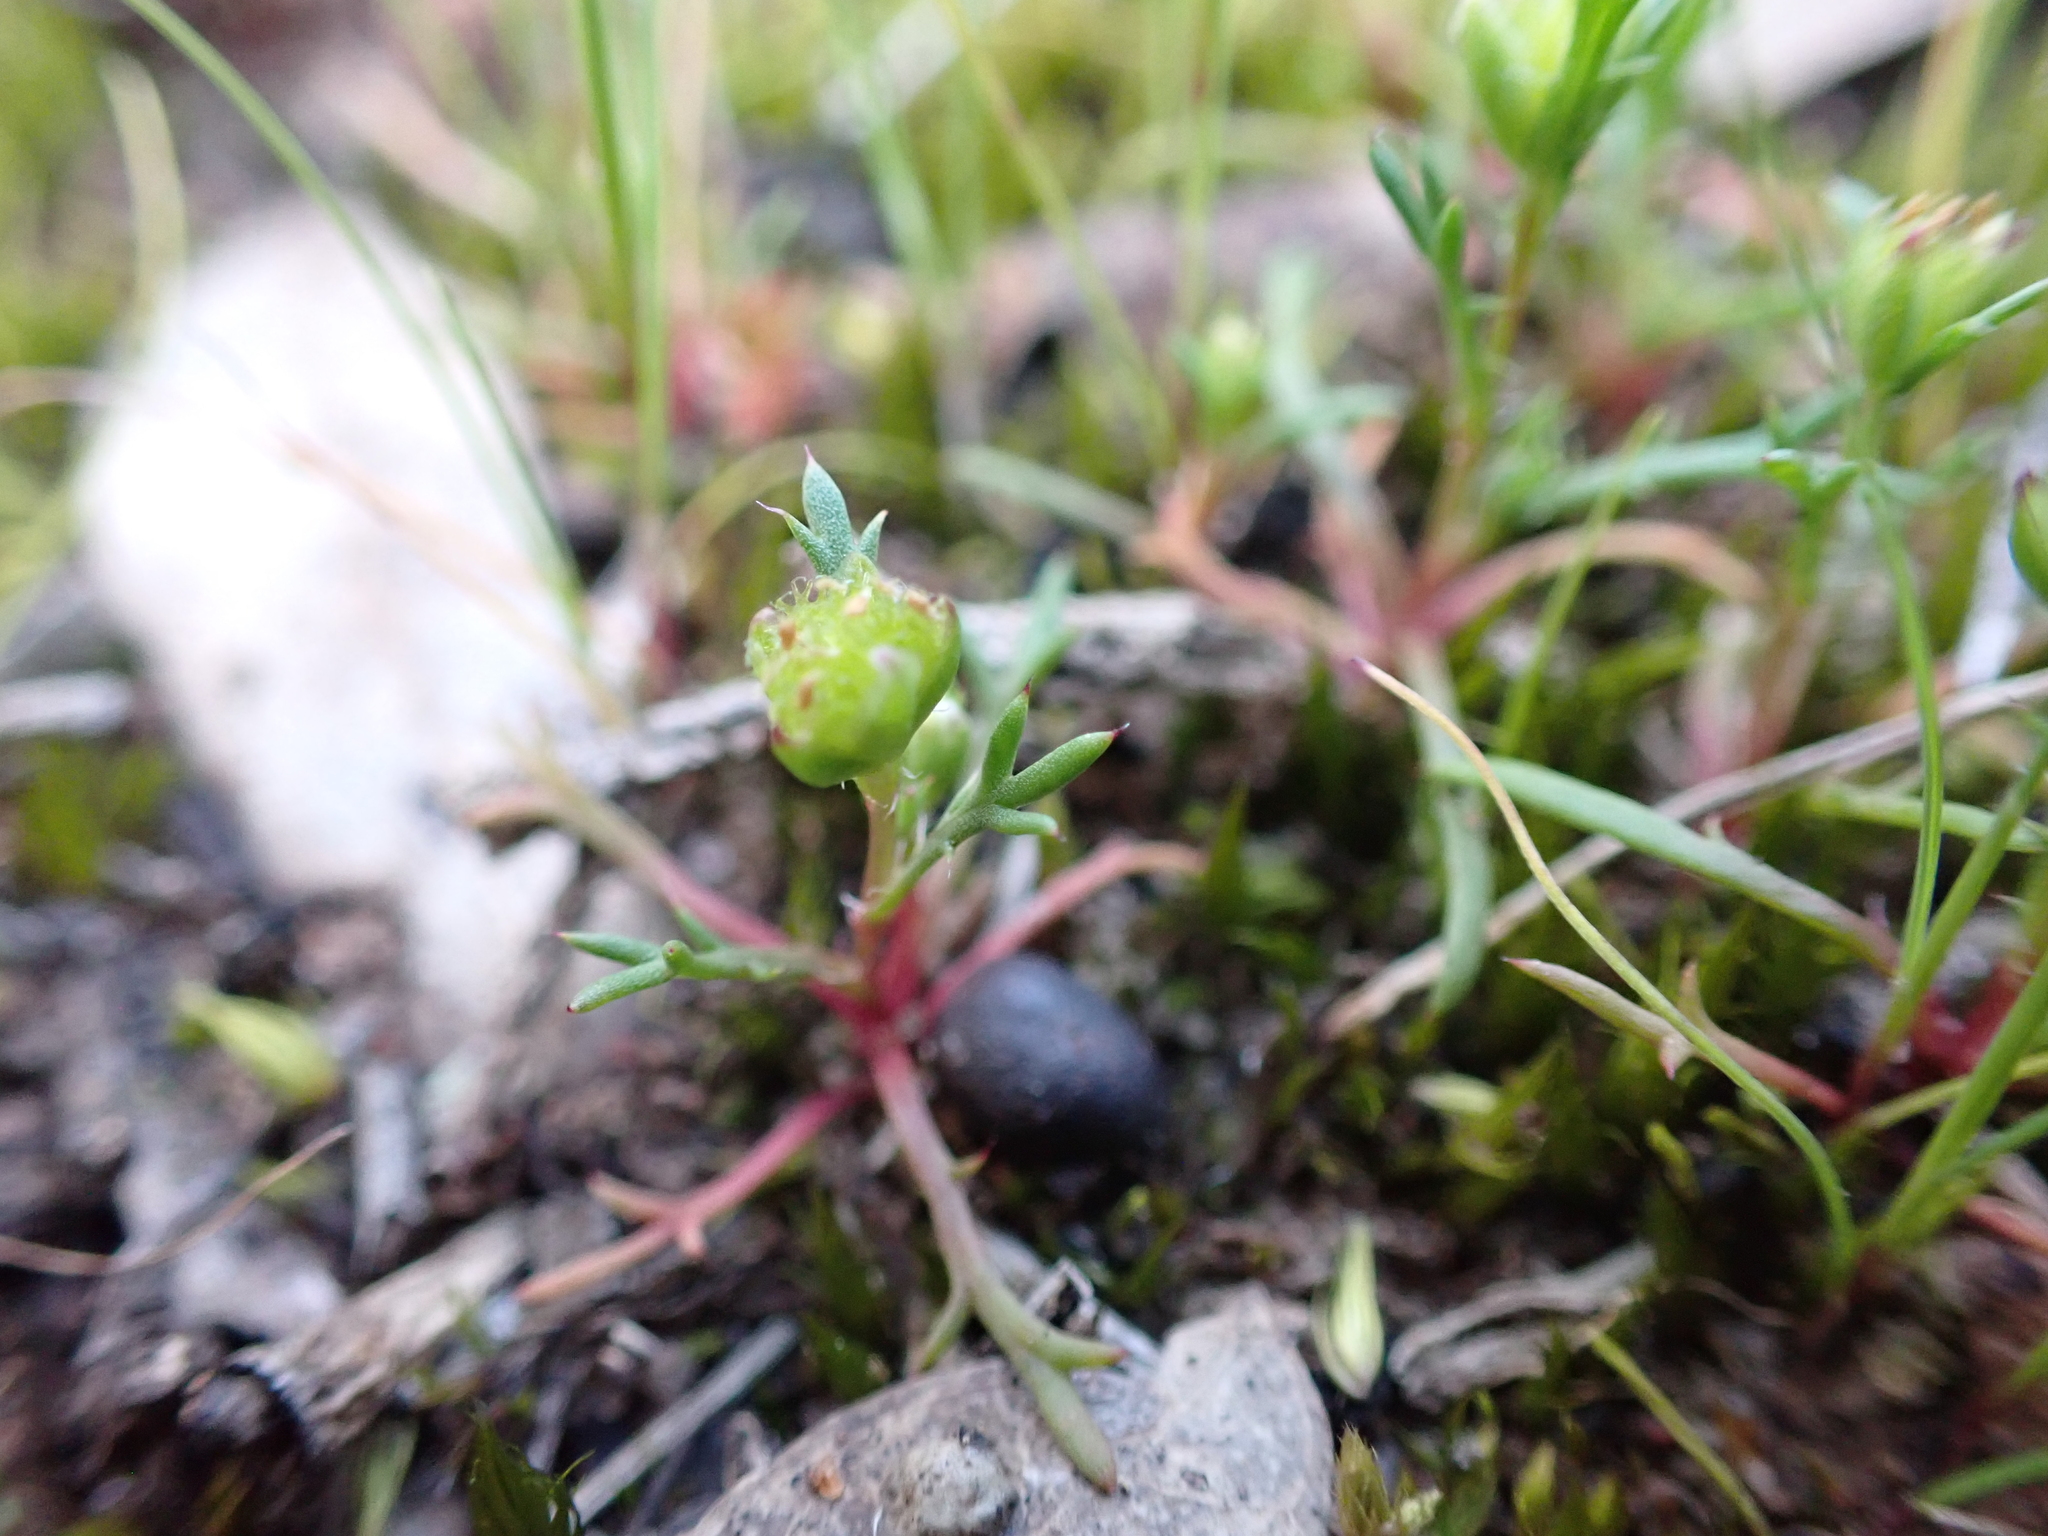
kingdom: Plantae
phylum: Tracheophyta
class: Magnoliopsida
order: Asterales
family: Asteraceae
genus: Brachyscome
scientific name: Brachyscome perpusilla
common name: Tiny daisy
